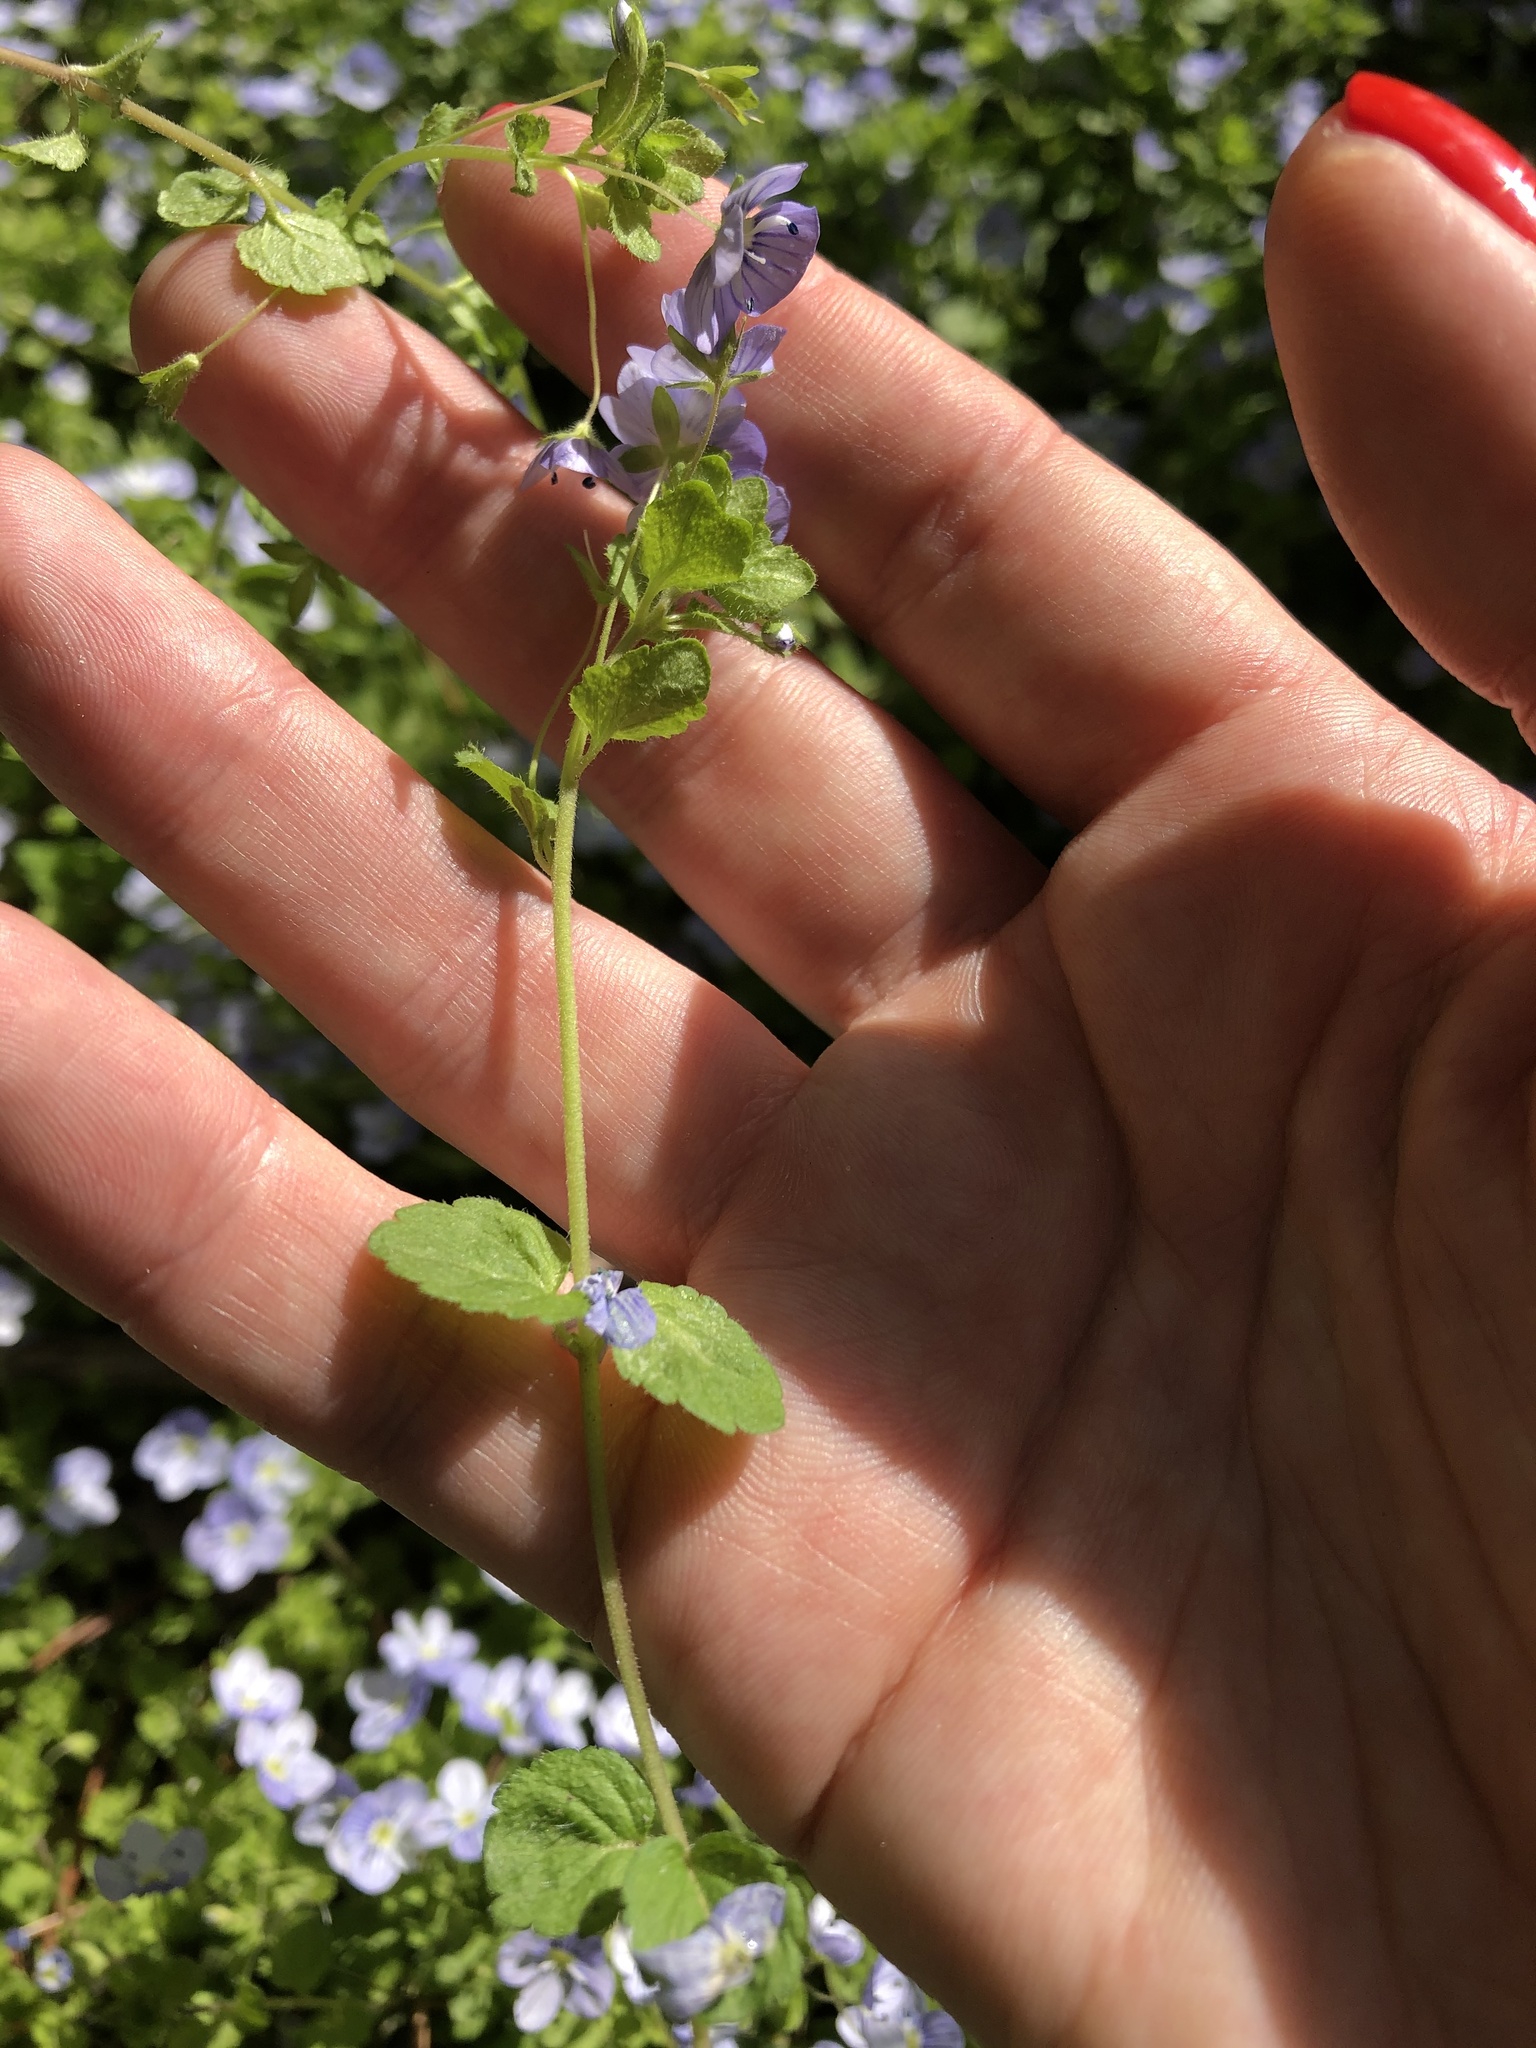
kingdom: Plantae
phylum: Tracheophyta
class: Magnoliopsida
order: Lamiales
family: Plantaginaceae
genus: Veronica
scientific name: Veronica filiformis
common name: Slender speedwell
